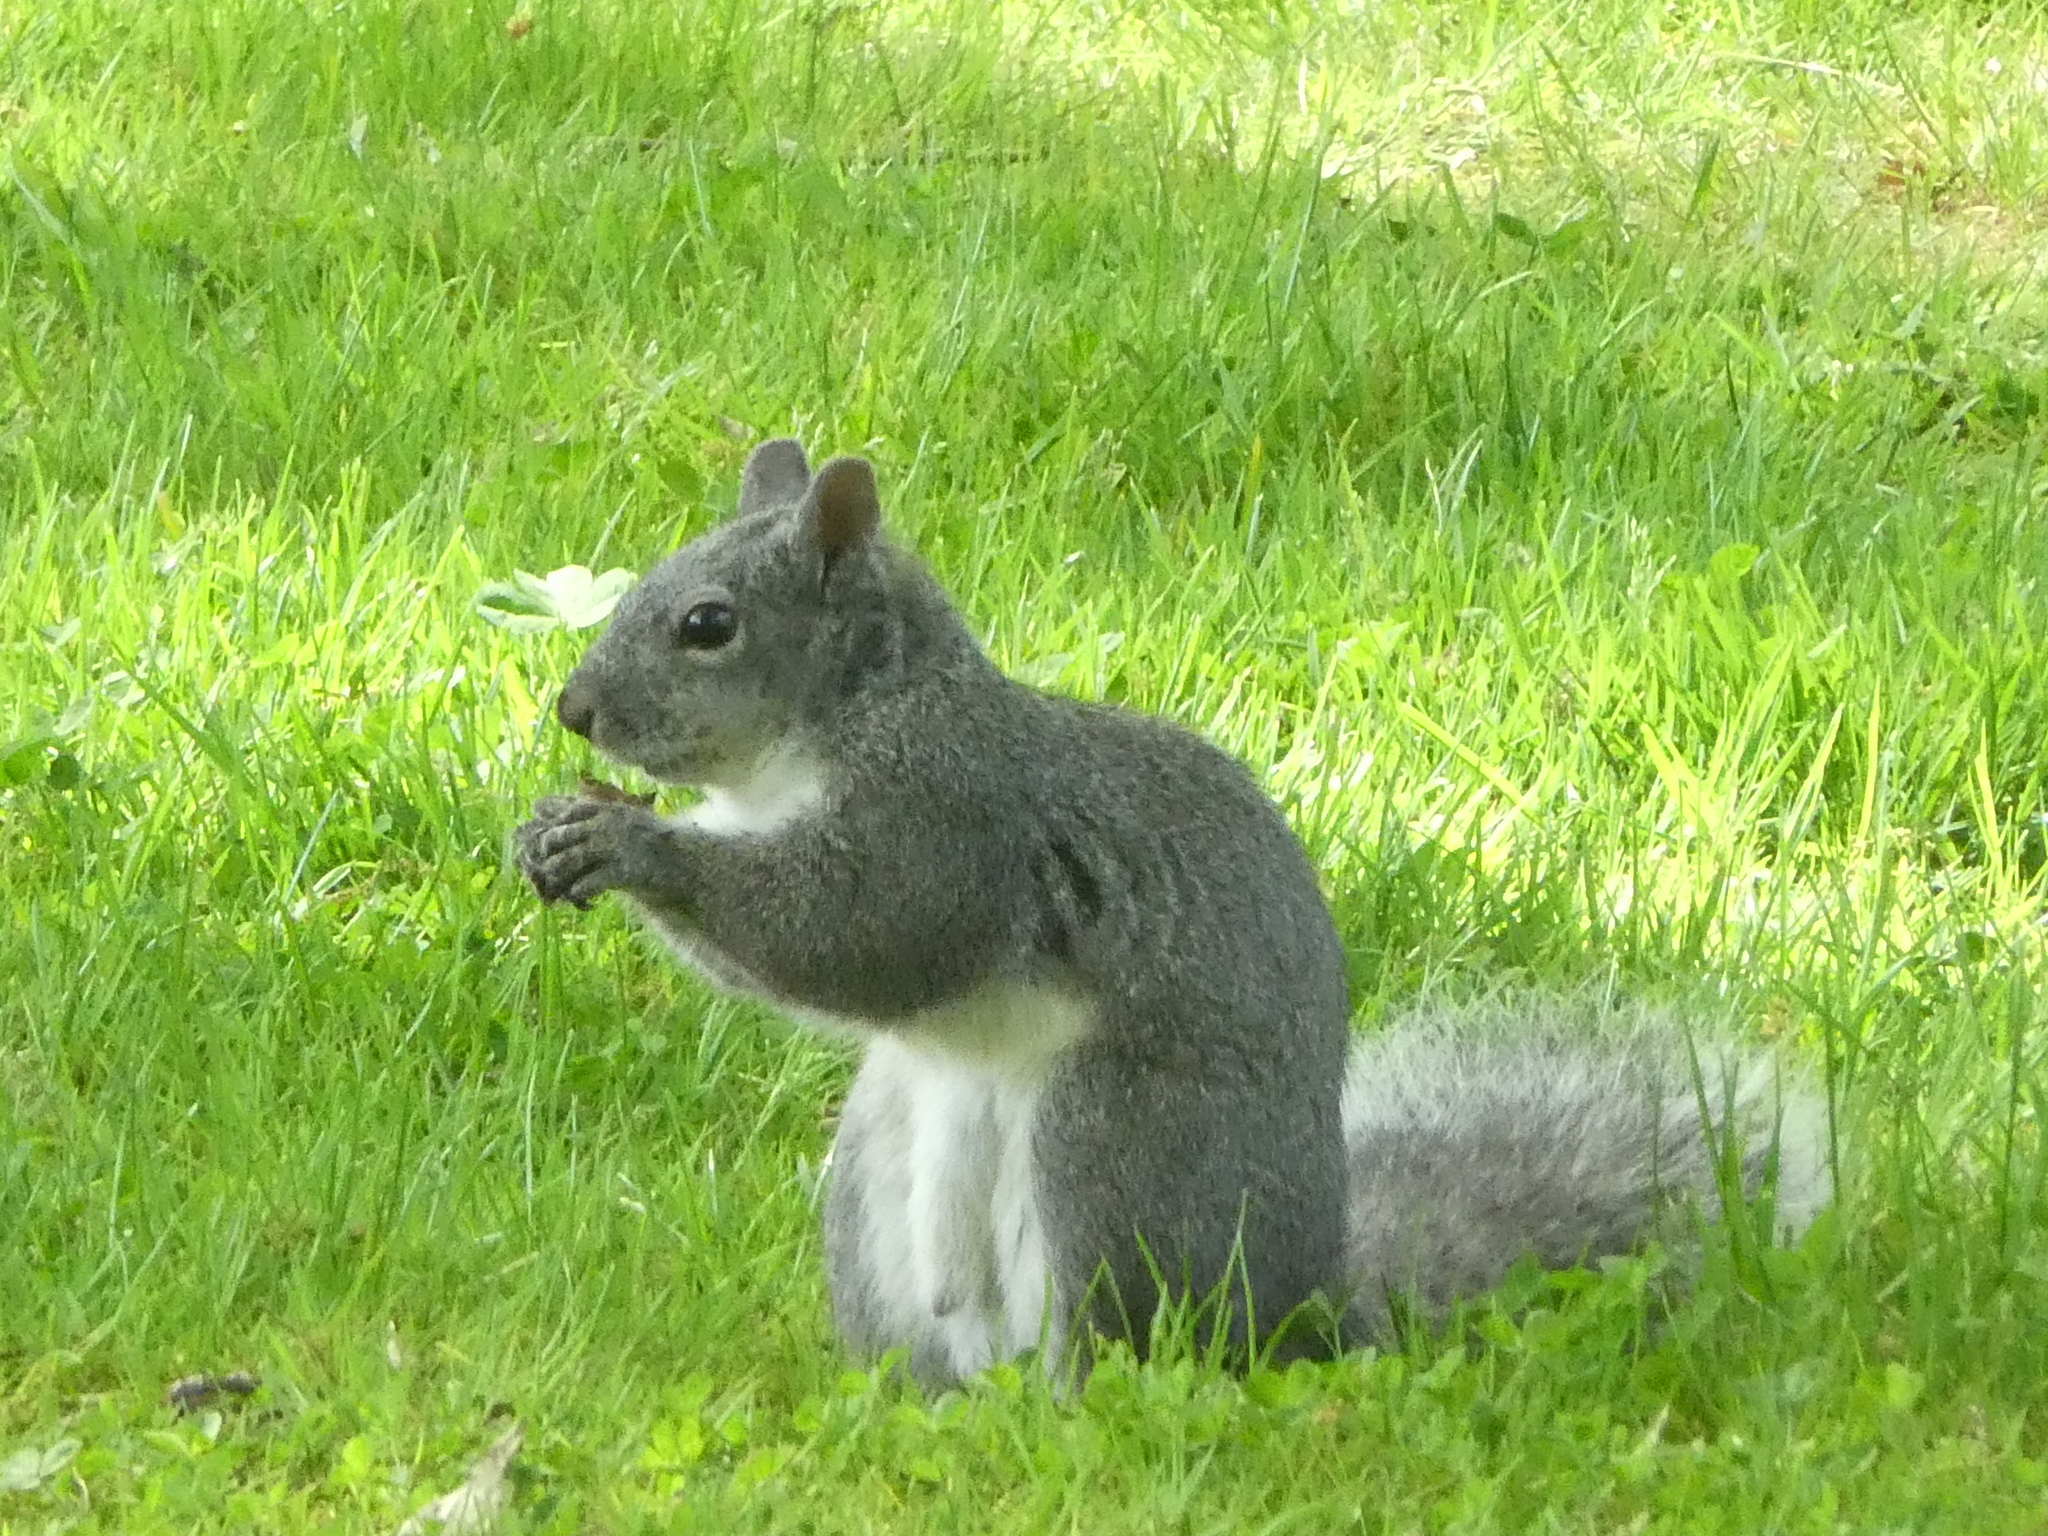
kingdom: Animalia
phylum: Chordata
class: Mammalia
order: Rodentia
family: Sciuridae
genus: Sciurus
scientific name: Sciurus griseus
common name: Western gray squirrel
